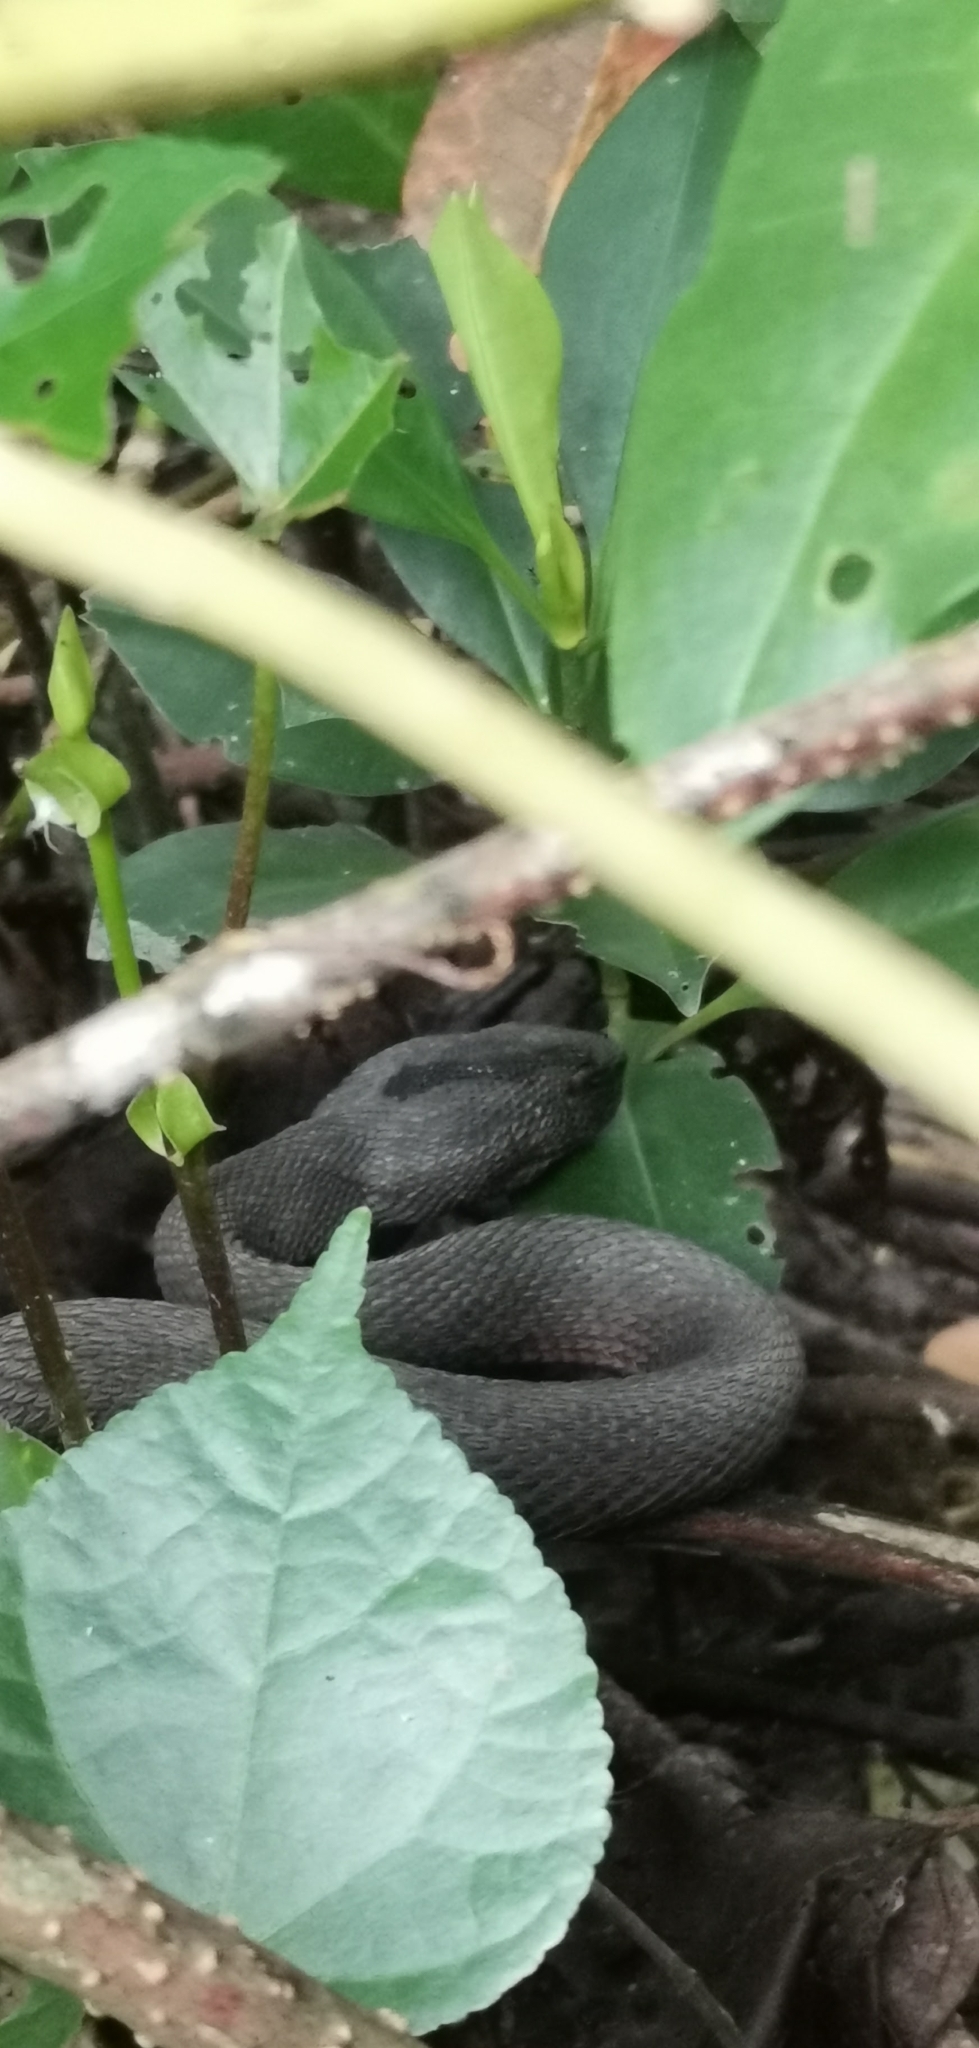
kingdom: Animalia
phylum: Chordata
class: Squamata
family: Viperidae
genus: Trimeresurus
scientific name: Trimeresurus purpureomaculatus
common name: Shore pit viper
